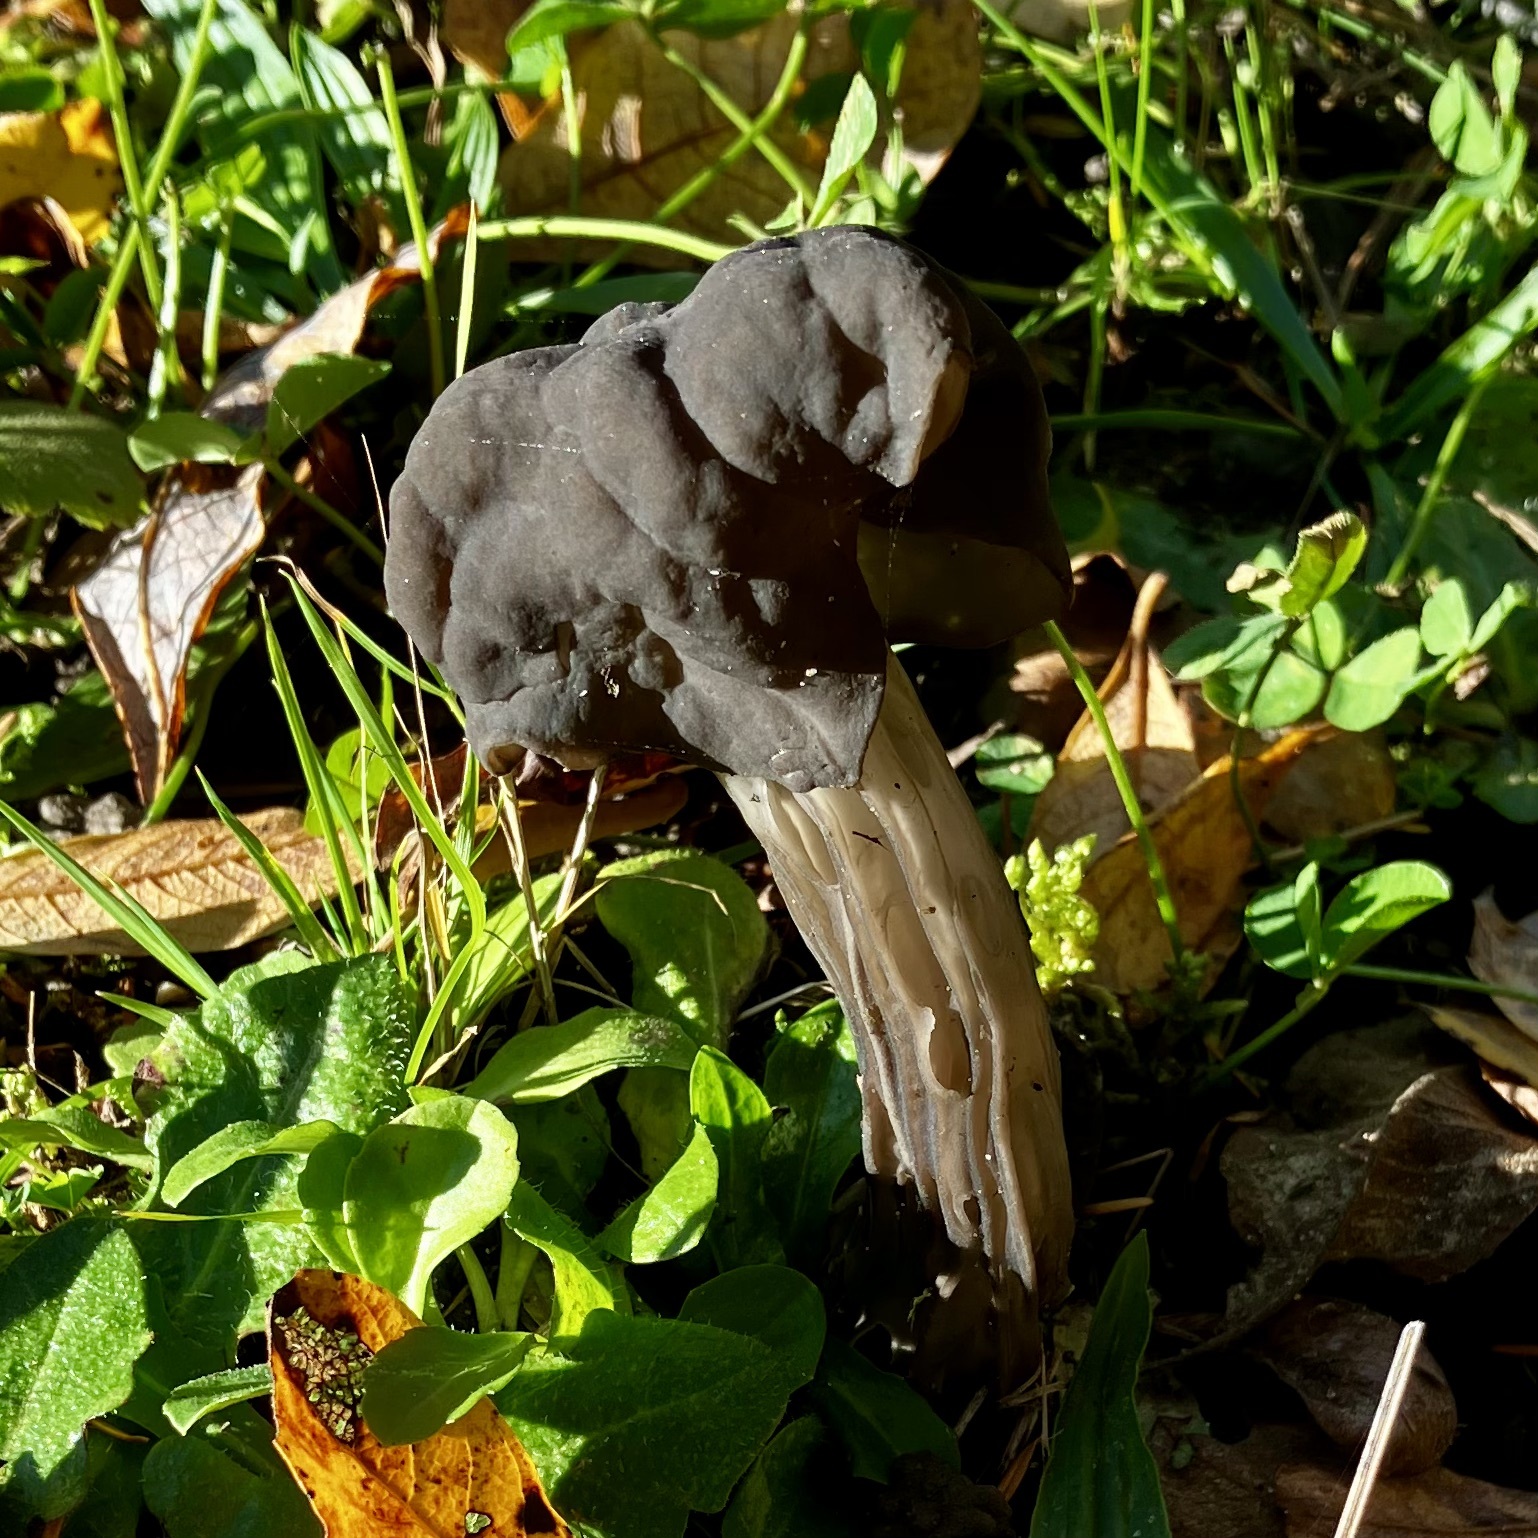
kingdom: Fungi
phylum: Ascomycota
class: Pezizomycetes
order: Pezizales
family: Helvellaceae
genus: Helvella
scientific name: Helvella vespertina
